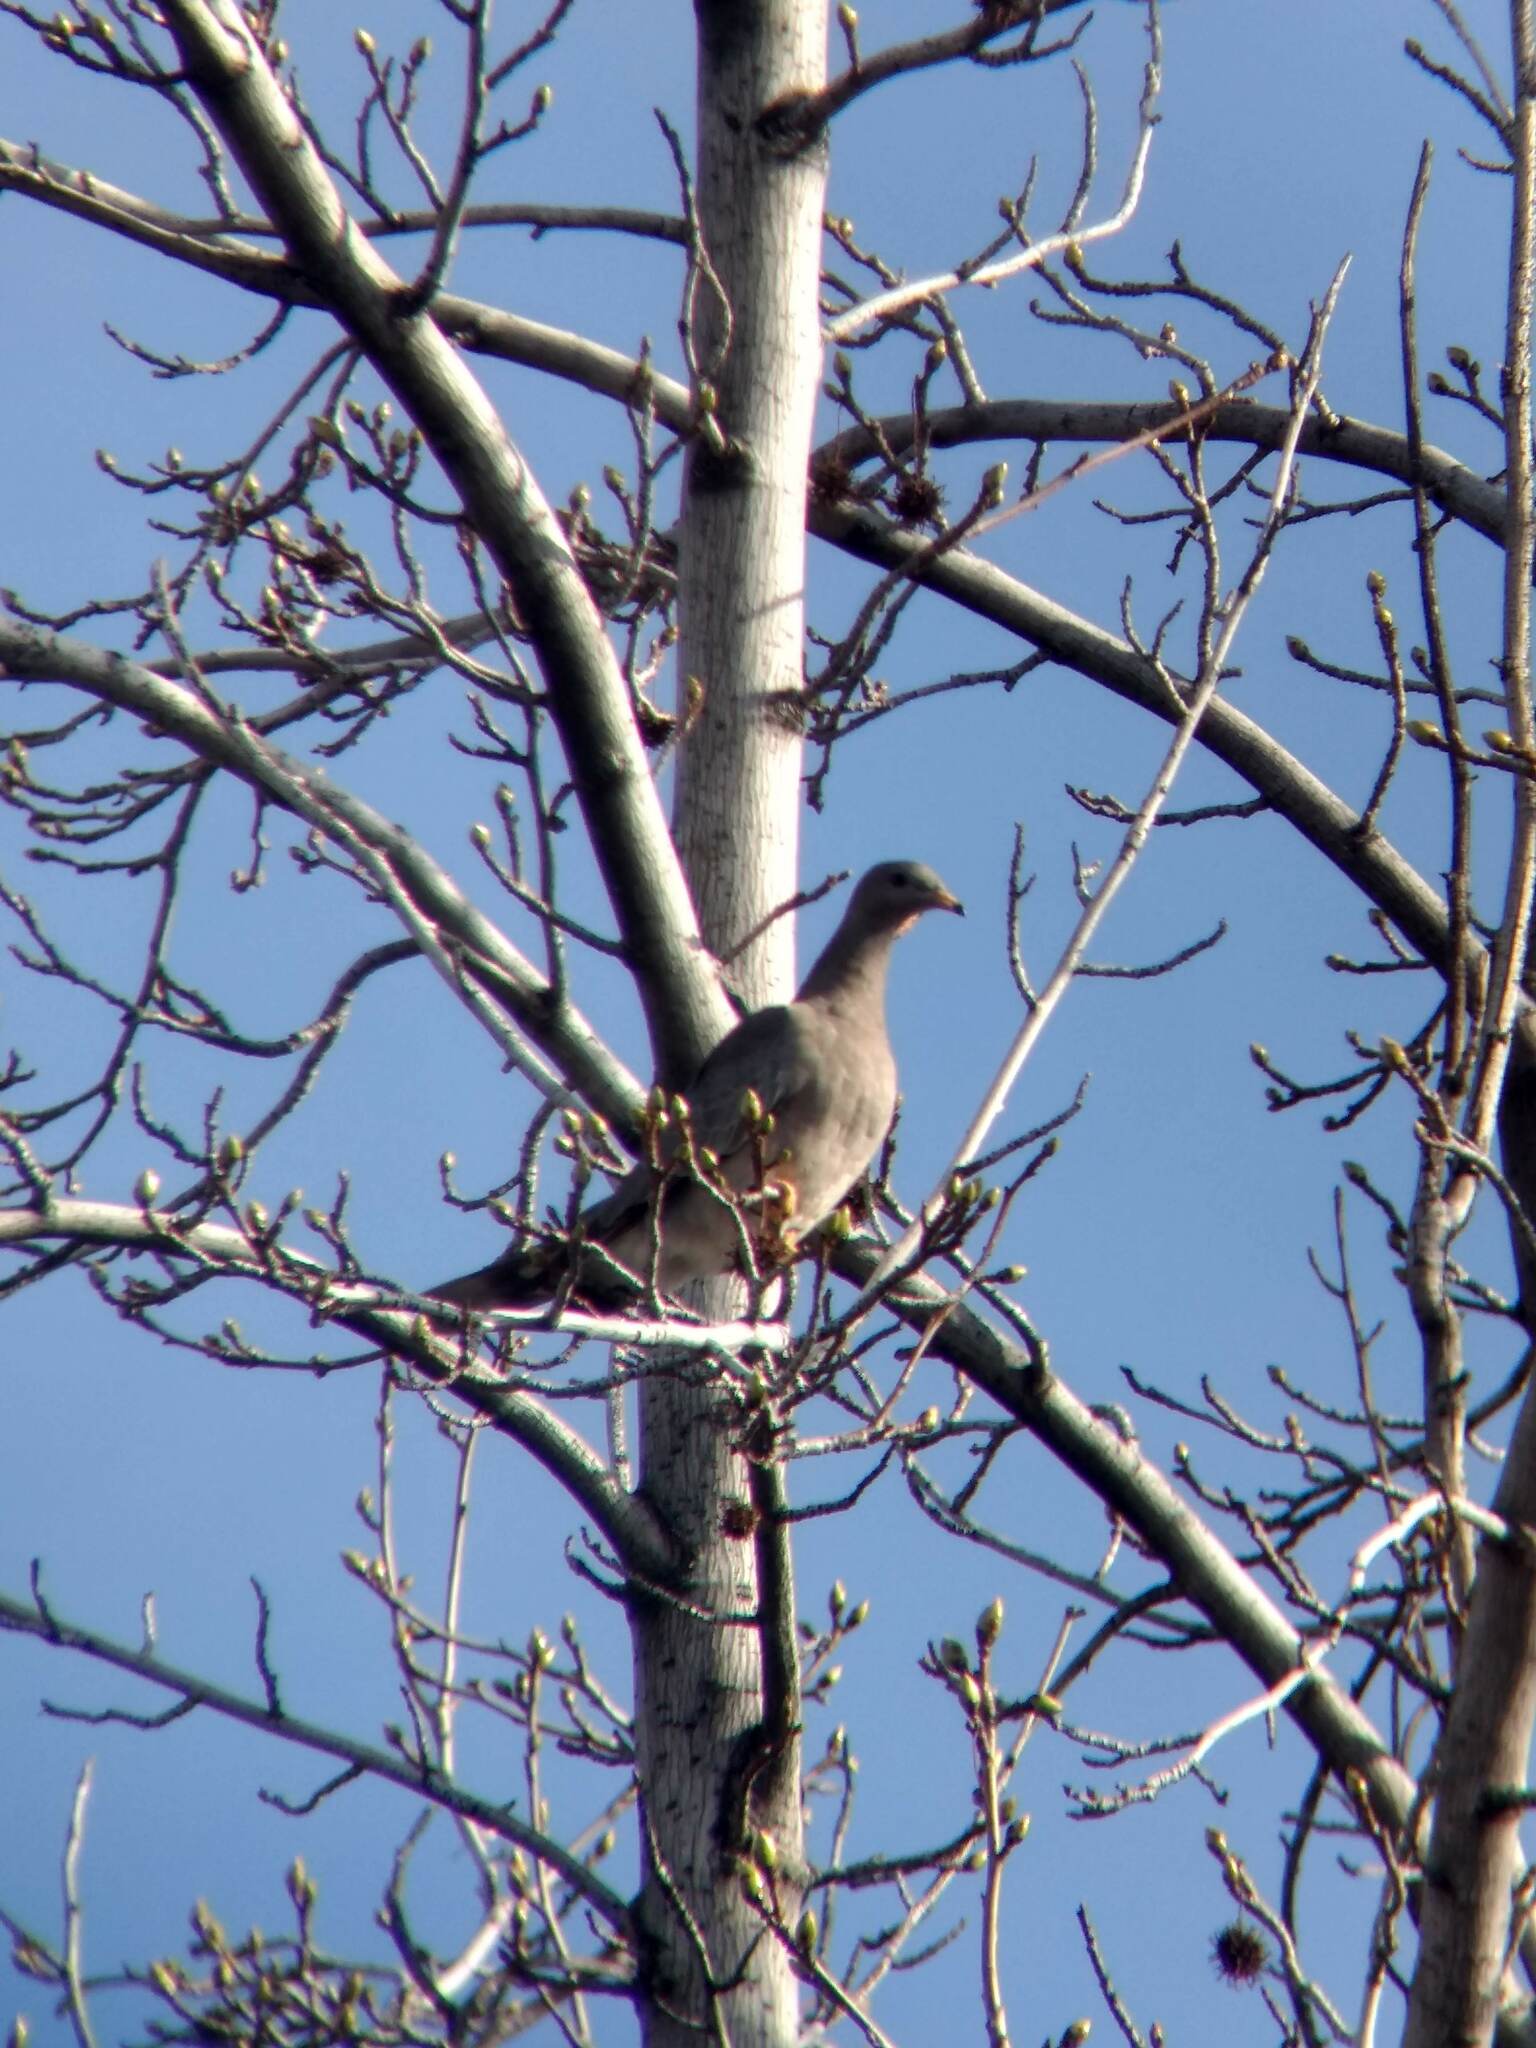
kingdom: Animalia
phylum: Chordata
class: Aves
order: Columbiformes
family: Columbidae
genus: Patagioenas
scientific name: Patagioenas fasciata
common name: Band-tailed pigeon
